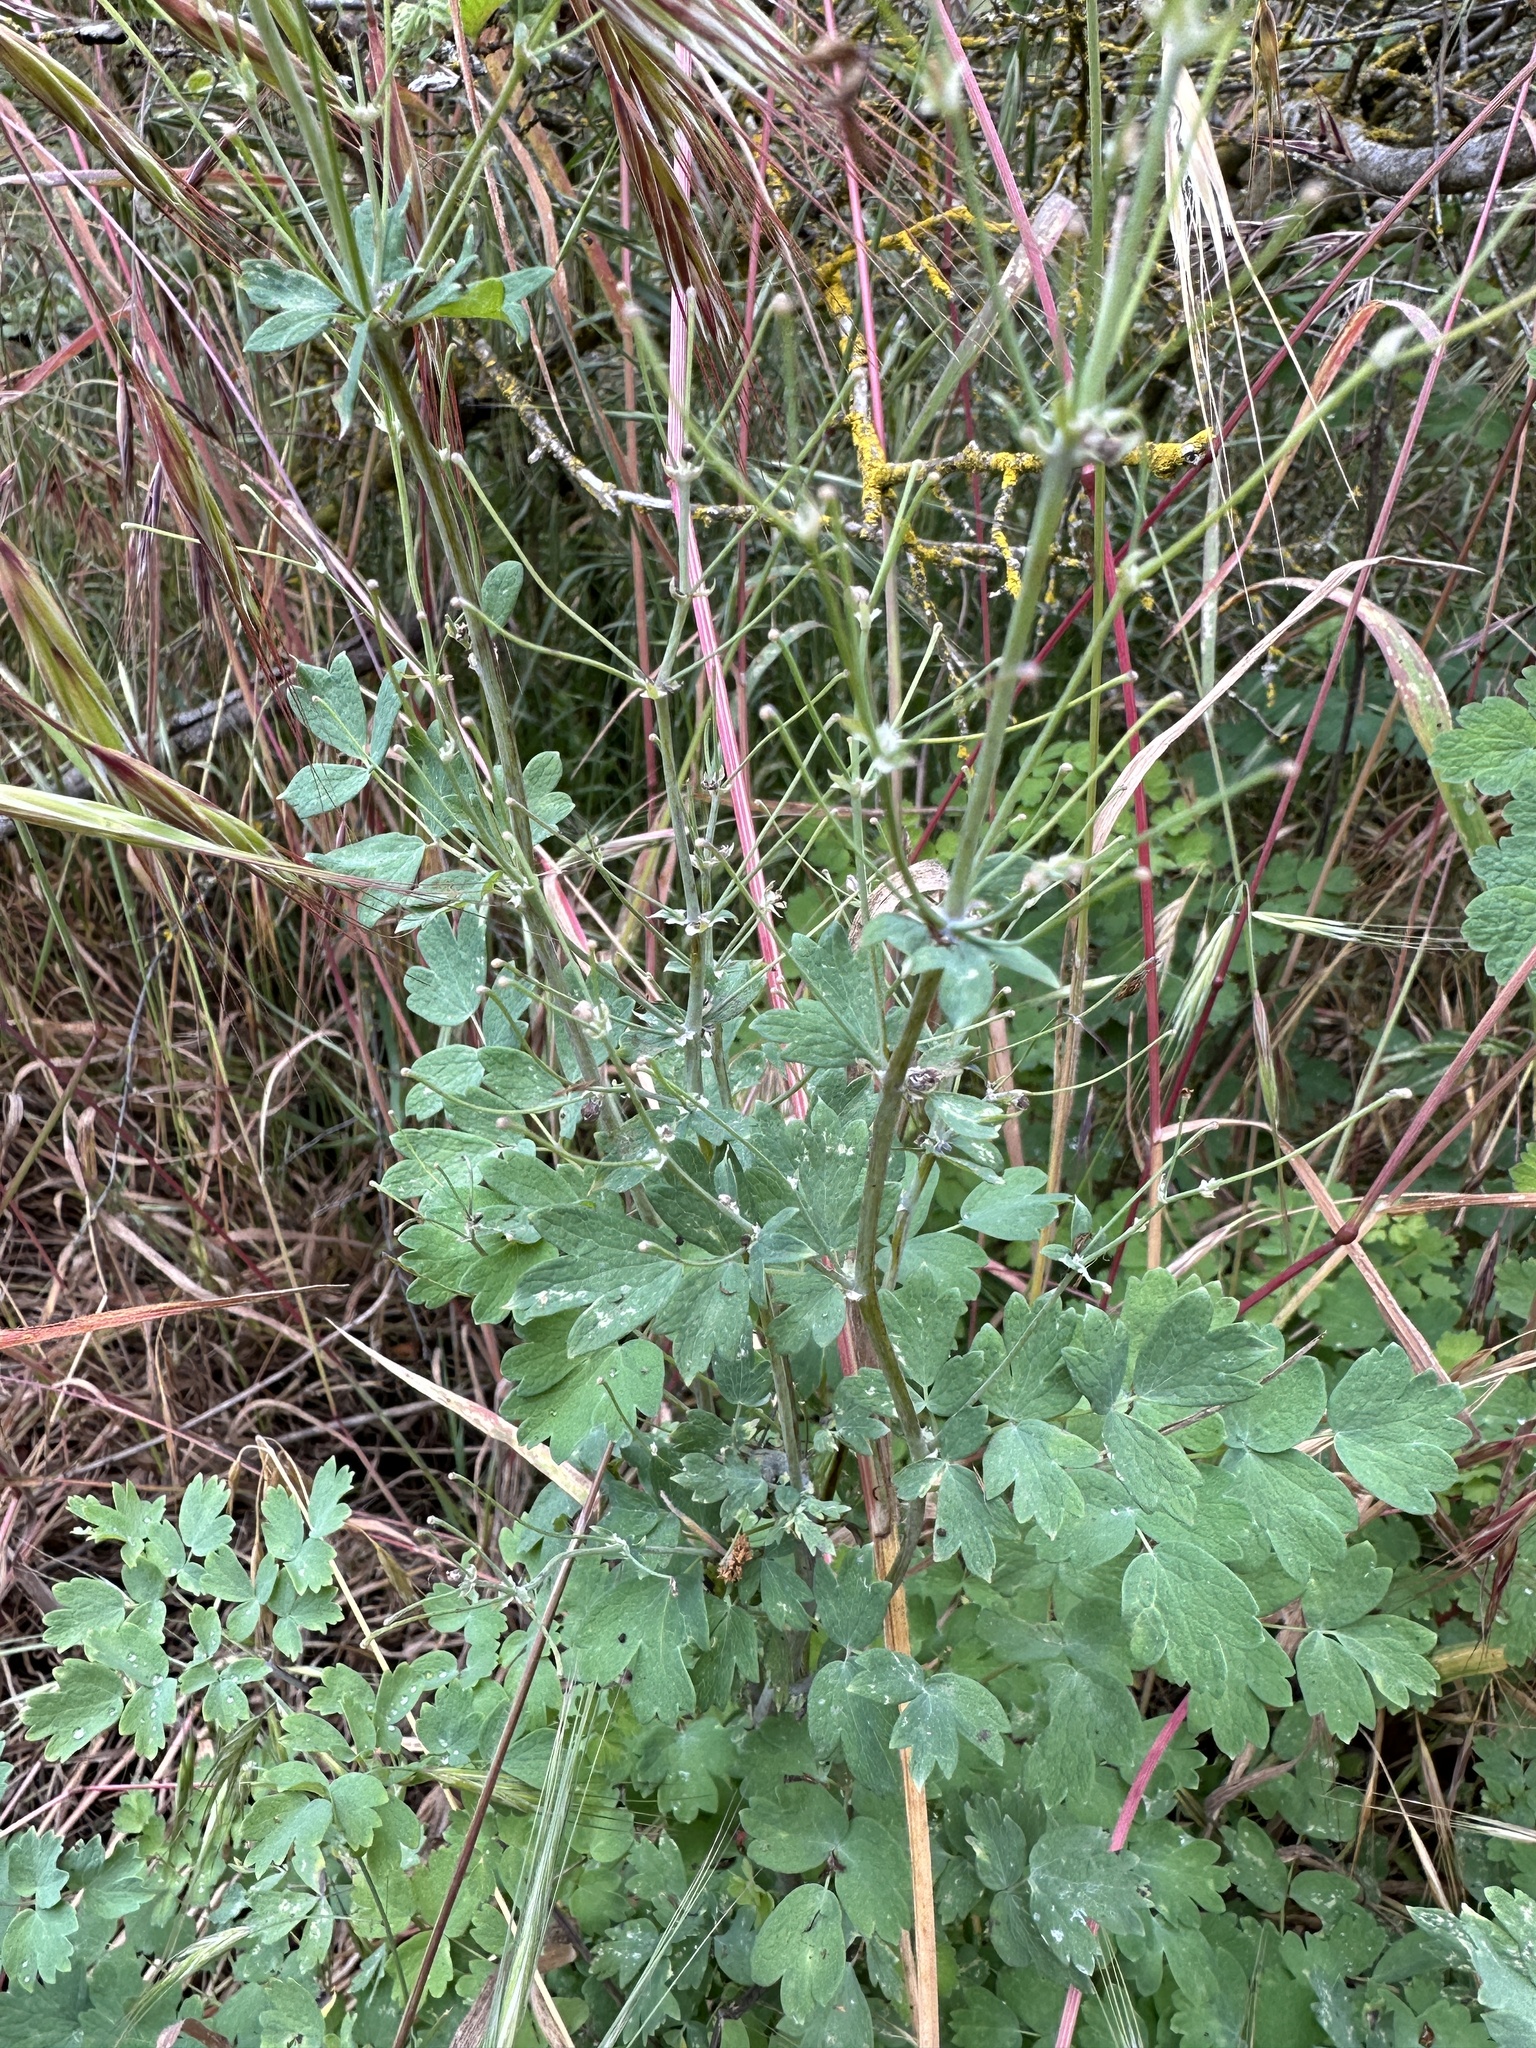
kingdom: Plantae
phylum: Tracheophyta
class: Magnoliopsida
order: Ranunculales
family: Ranunculaceae
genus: Thalictrum
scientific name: Thalictrum fendleri
